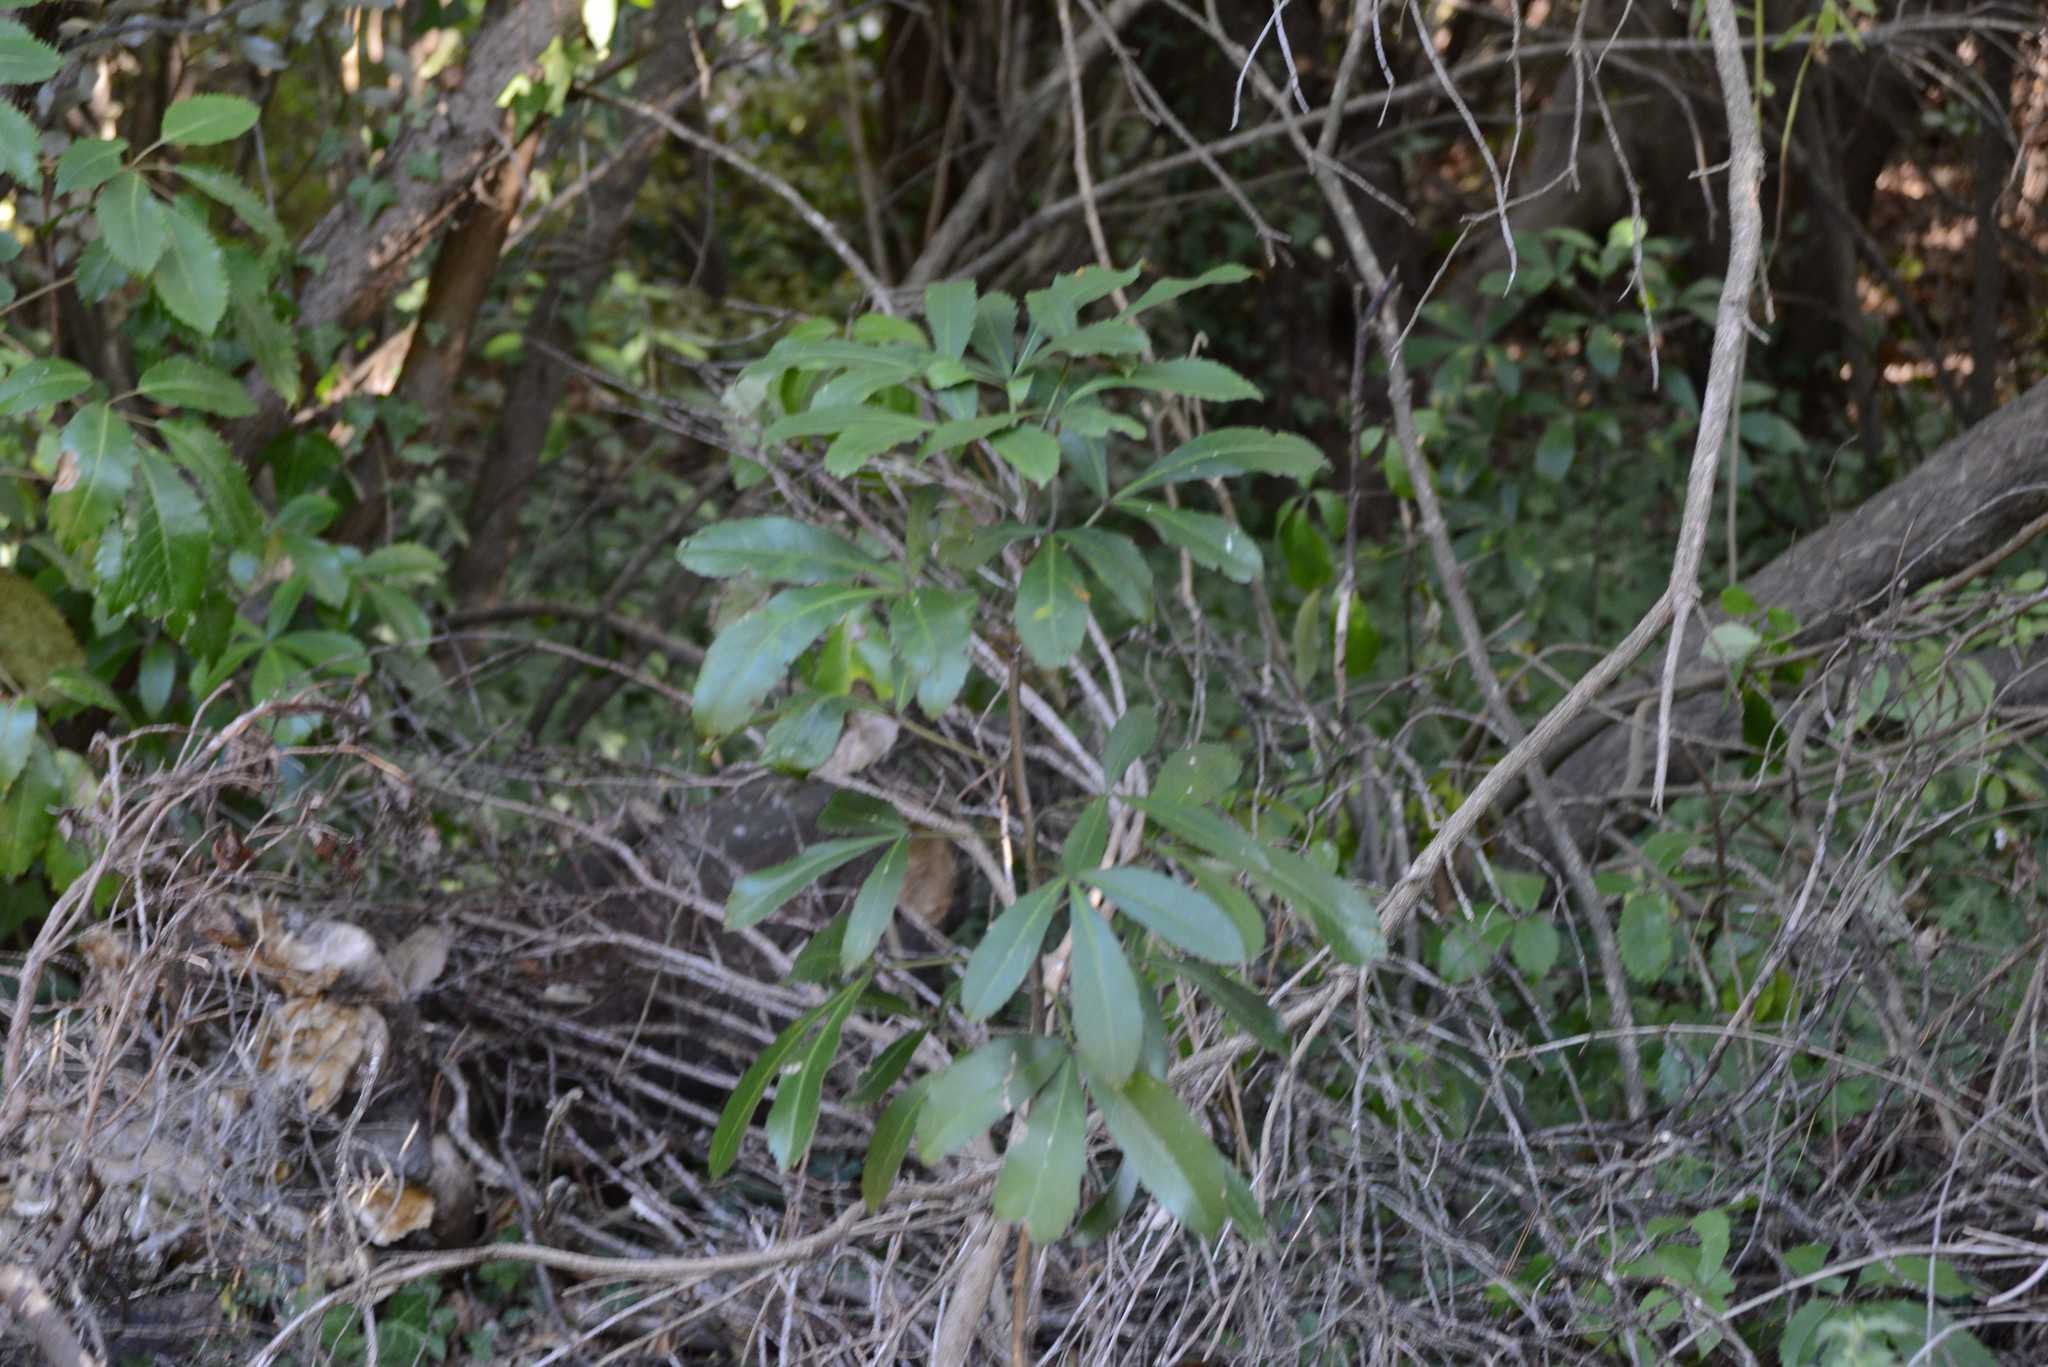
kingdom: Plantae
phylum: Tracheophyta
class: Magnoliopsida
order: Apiales
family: Araliaceae
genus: Pseudopanax
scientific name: Pseudopanax lessonii
